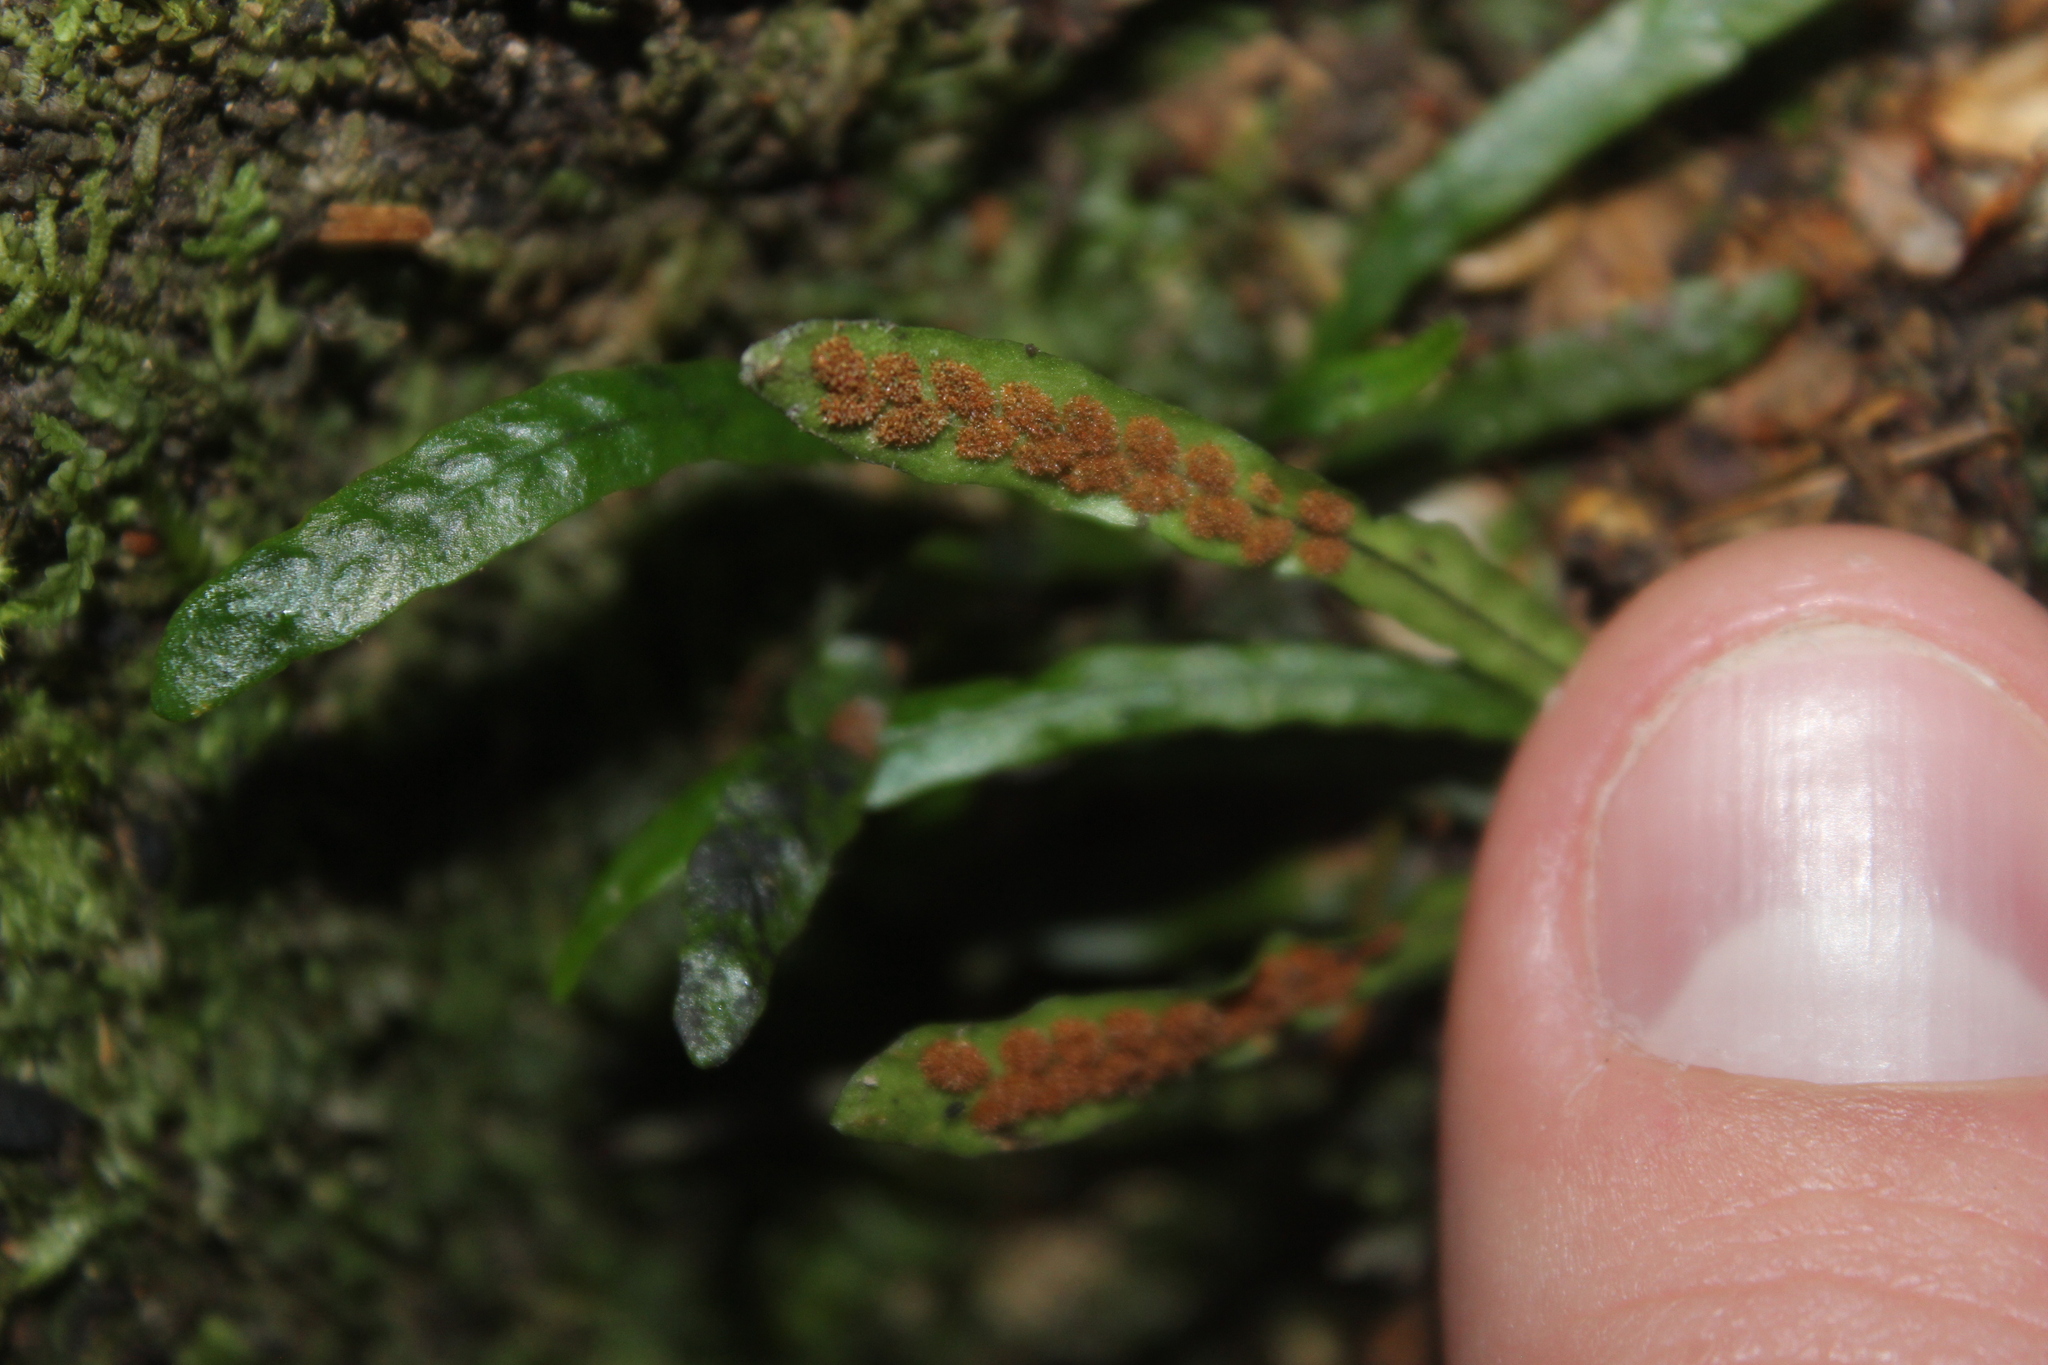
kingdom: Plantae
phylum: Tracheophyta
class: Polypodiopsida
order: Polypodiales
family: Polypodiaceae
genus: Notogrammitis
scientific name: Notogrammitis ciliata
